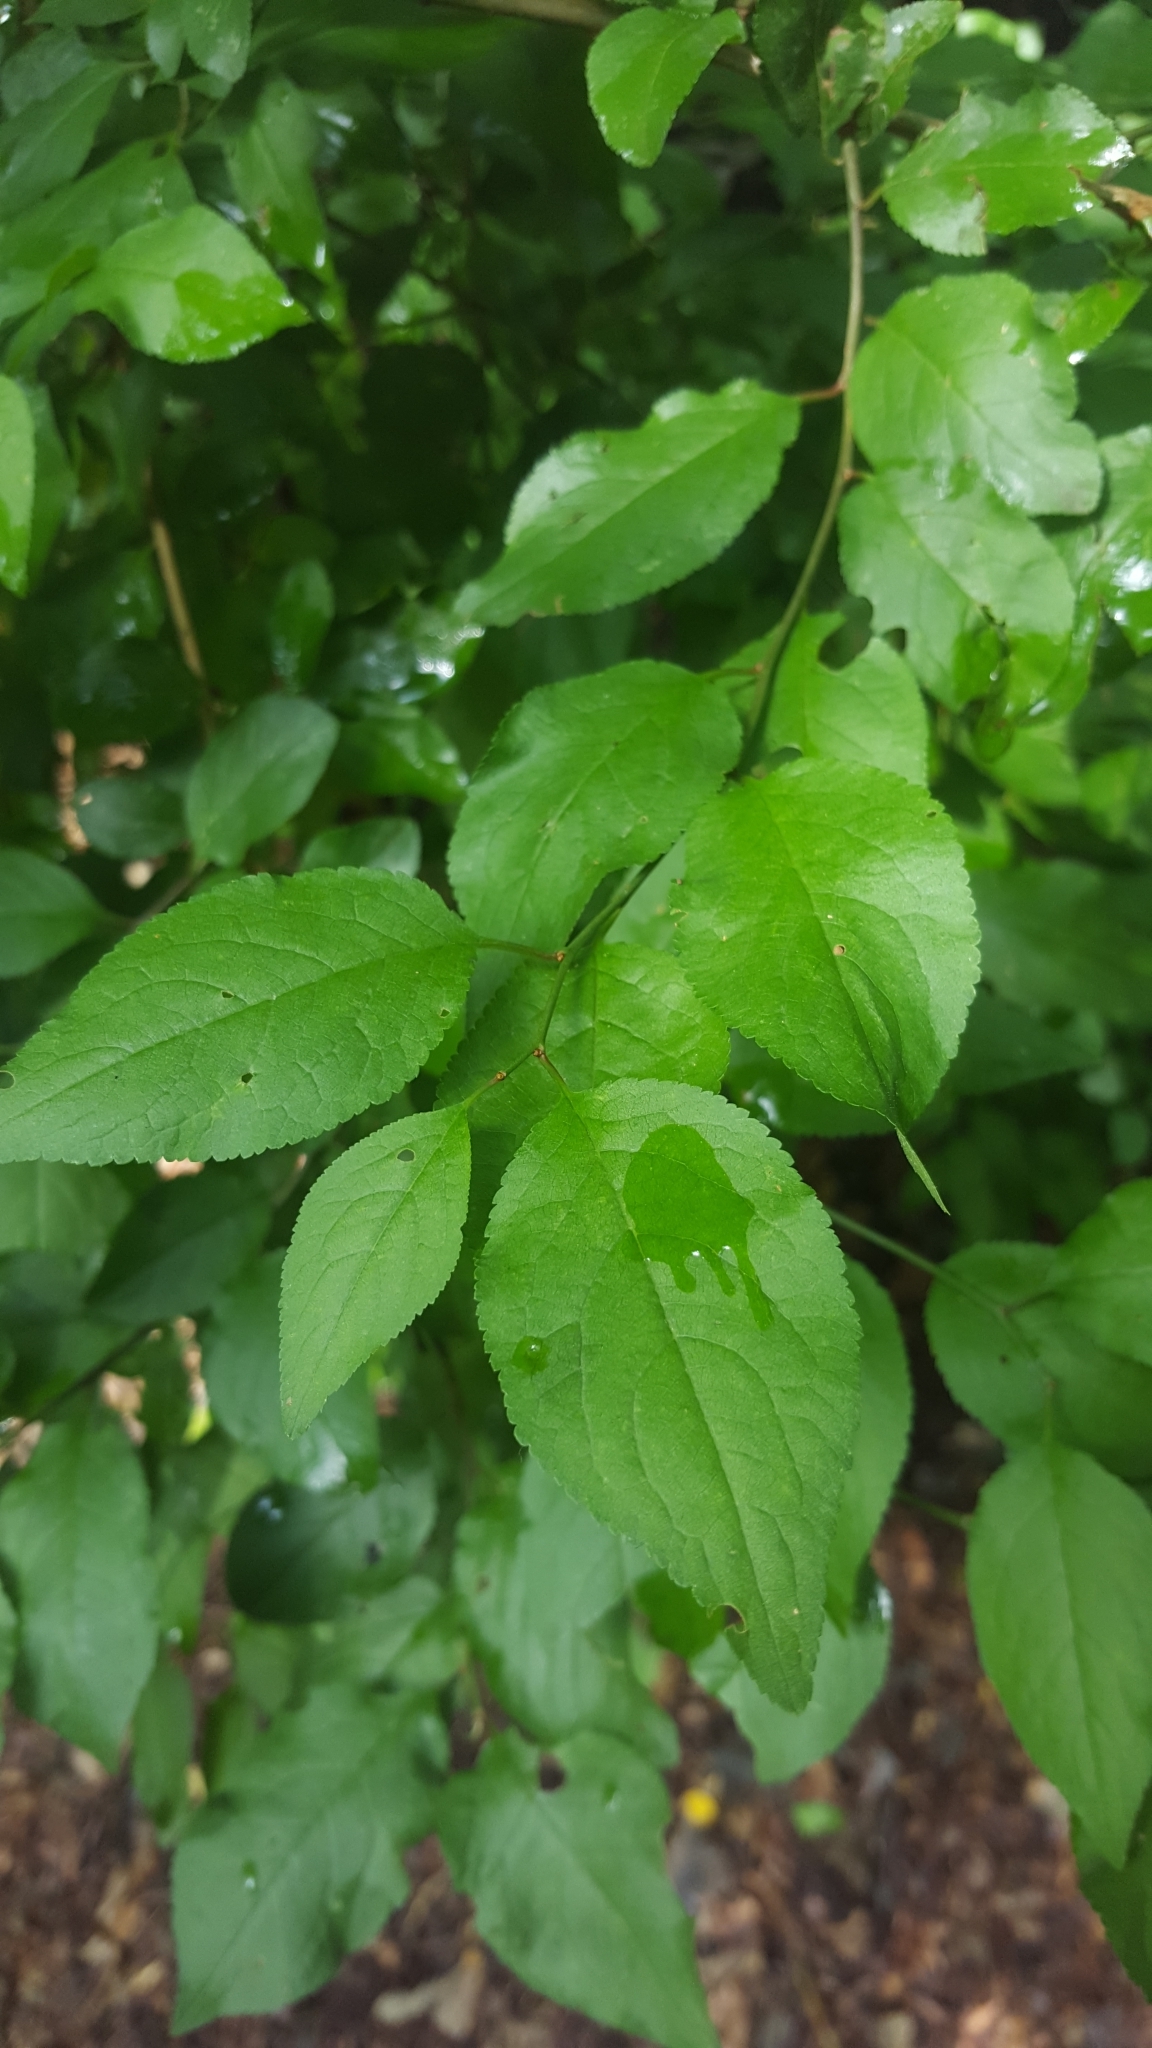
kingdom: Plantae
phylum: Tracheophyta
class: Magnoliopsida
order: Rosales
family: Rhamnaceae
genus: Rhamnus
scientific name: Rhamnus cathartica
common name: Common buckthorn
